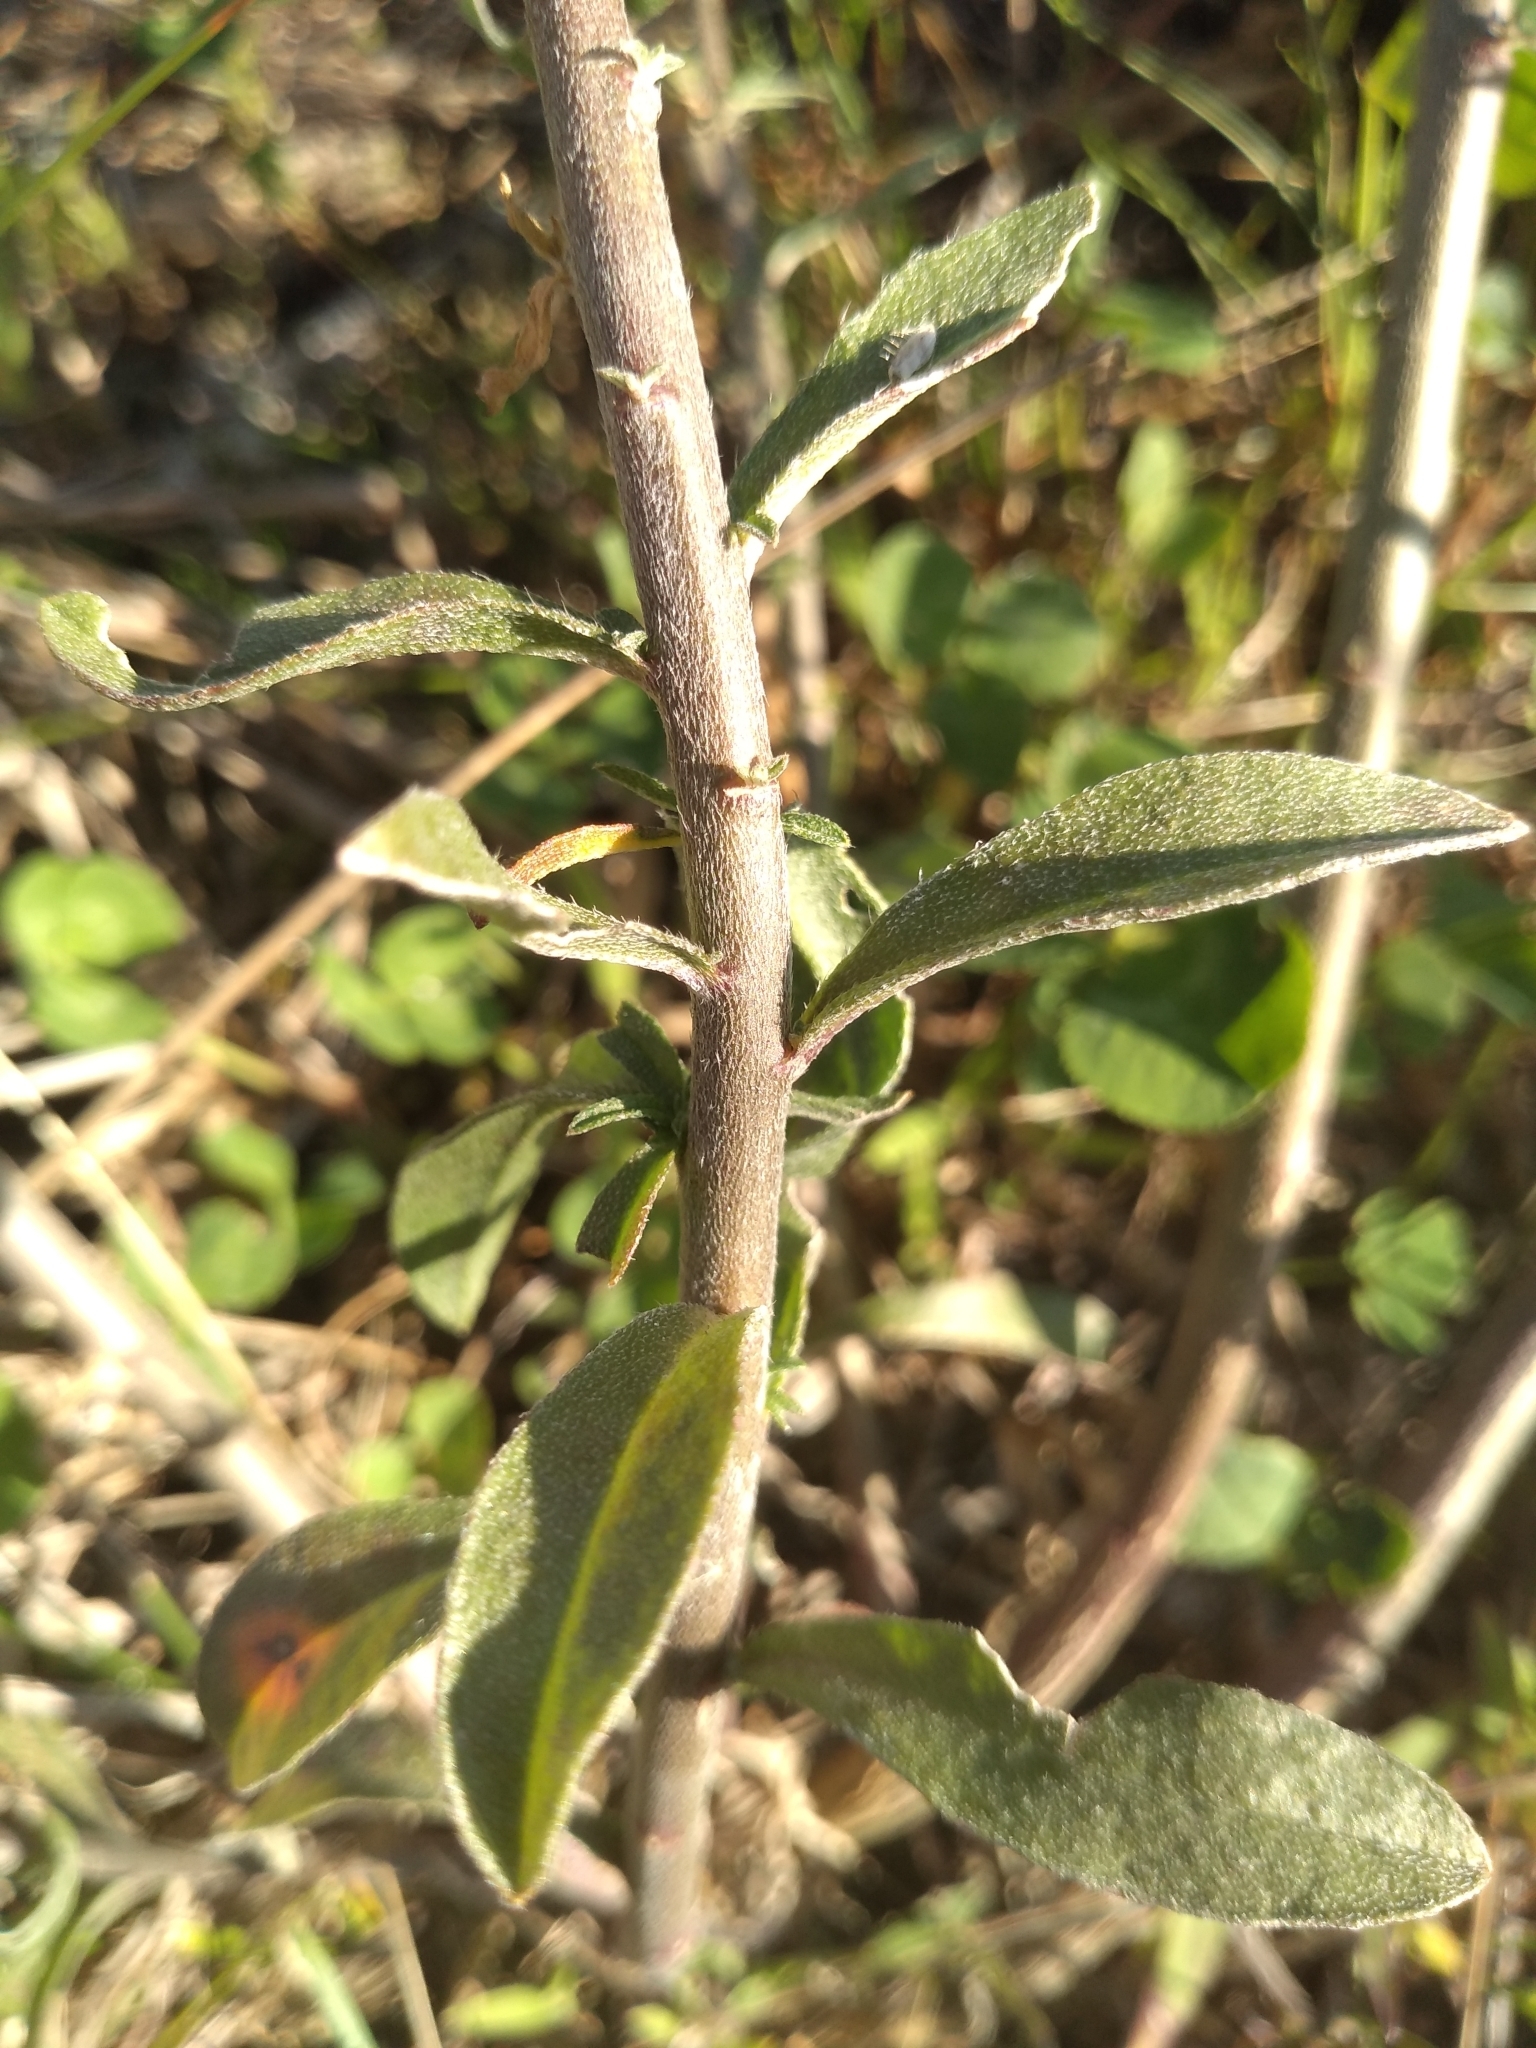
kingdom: Plantae
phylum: Tracheophyta
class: Magnoliopsida
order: Brassicales
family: Brassicaceae
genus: Berteroa
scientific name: Berteroa incana
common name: Hoary alison
